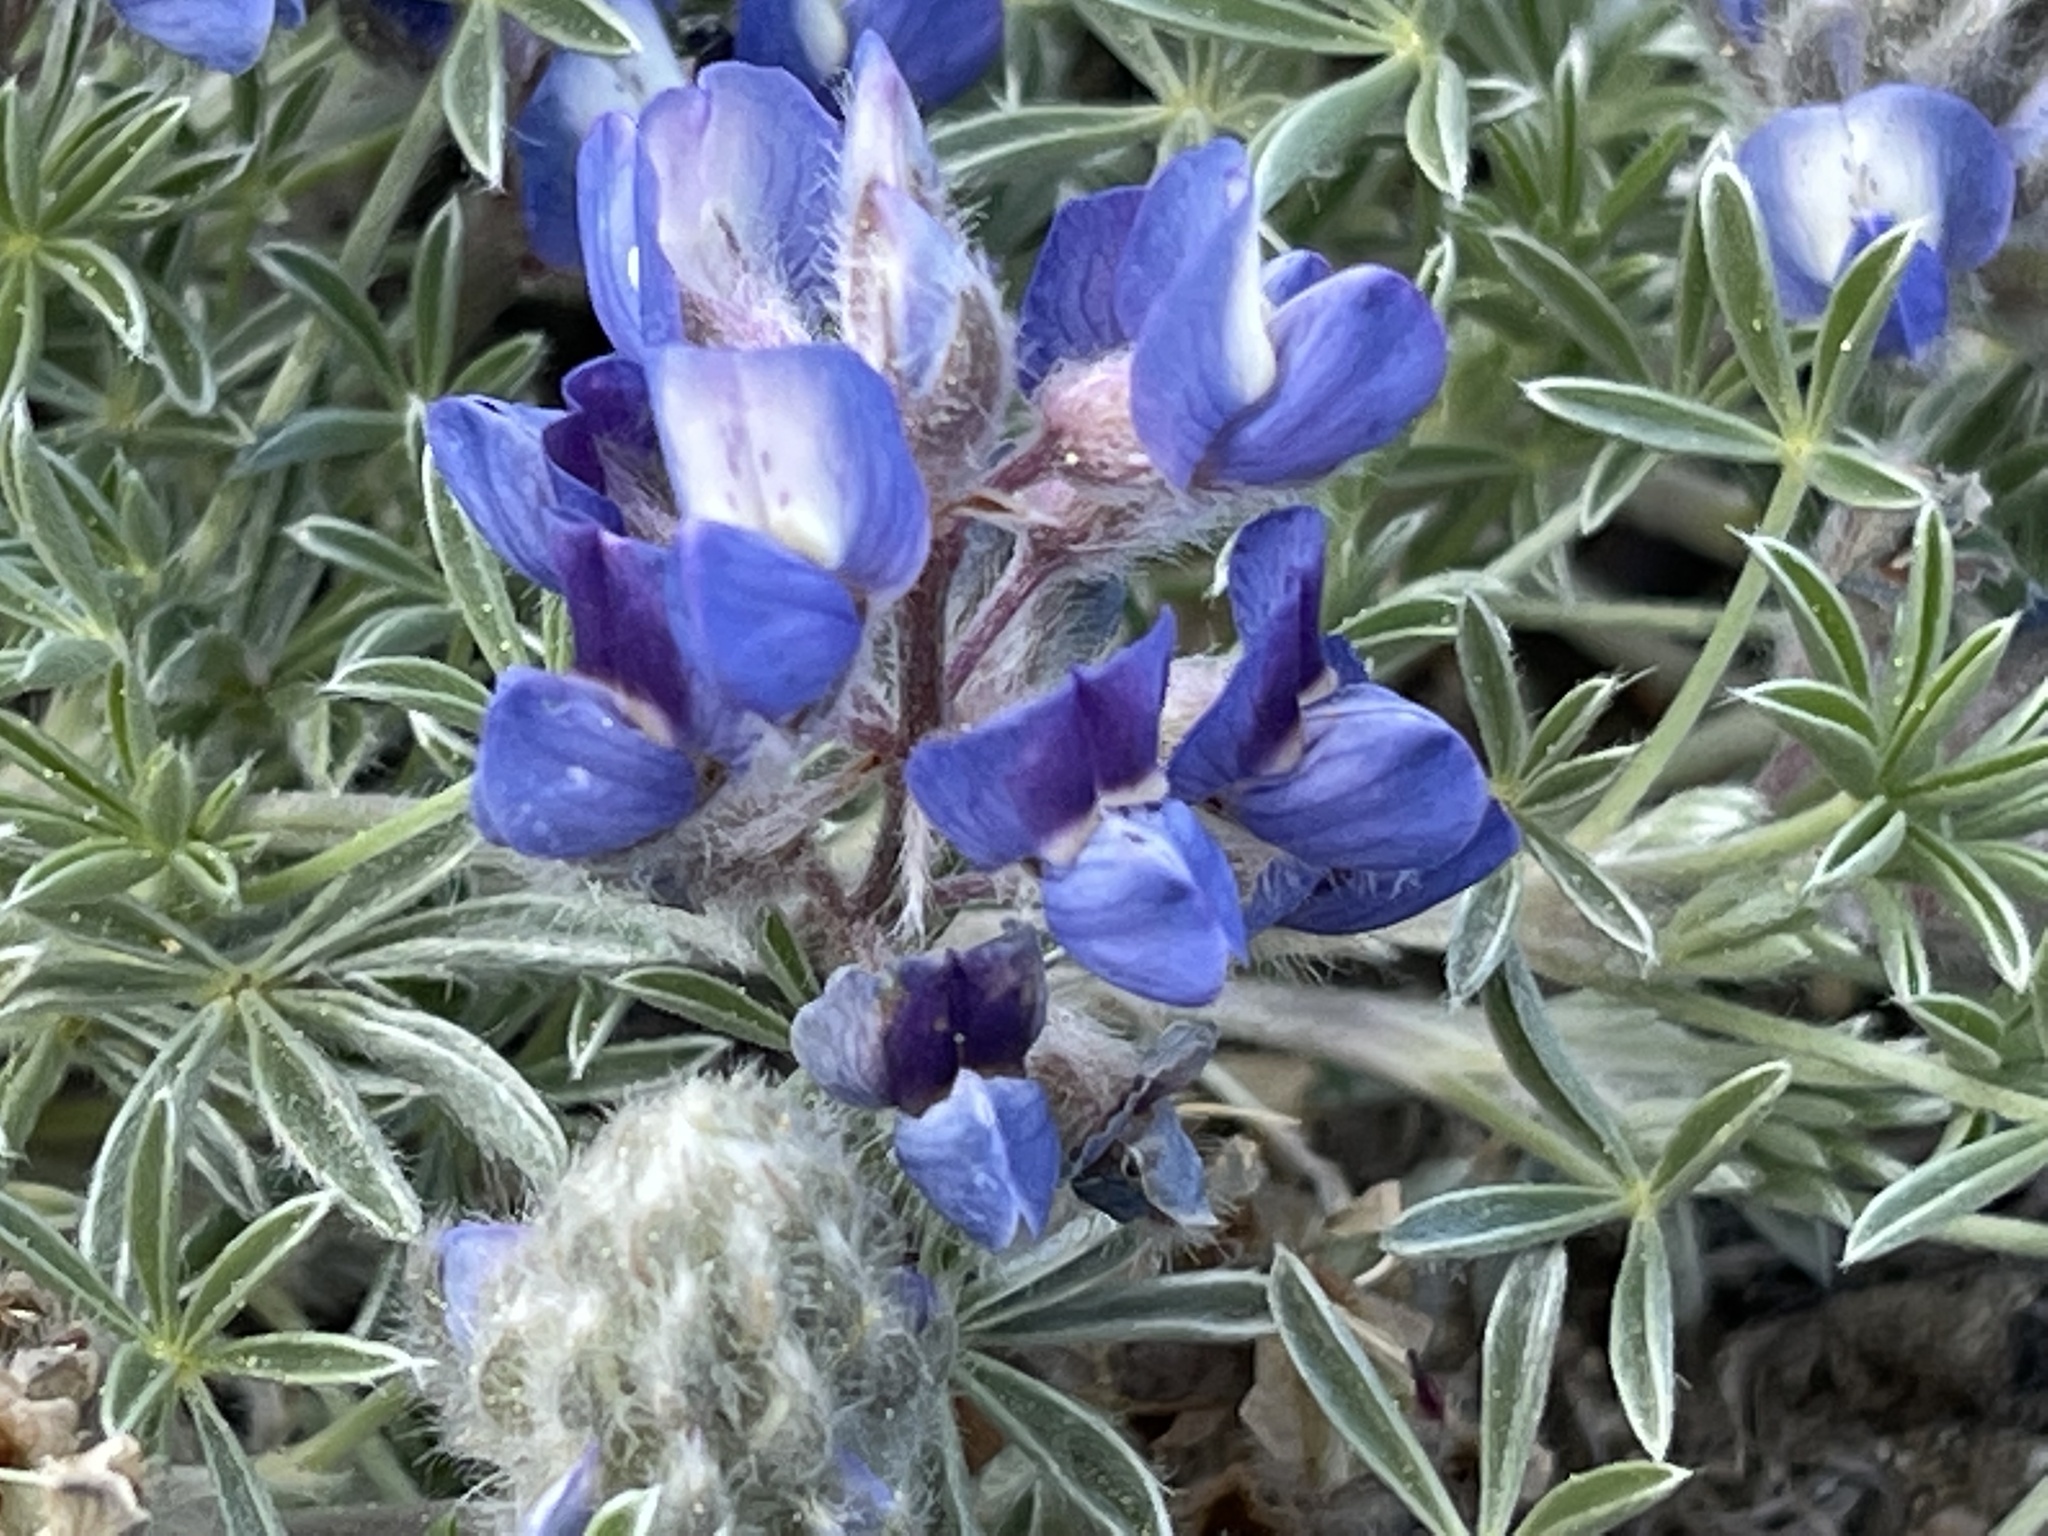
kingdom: Plantae
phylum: Tracheophyta
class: Magnoliopsida
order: Fabales
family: Fabaceae
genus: Lupinus
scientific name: Lupinus breweri
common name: Brewer's lupine
